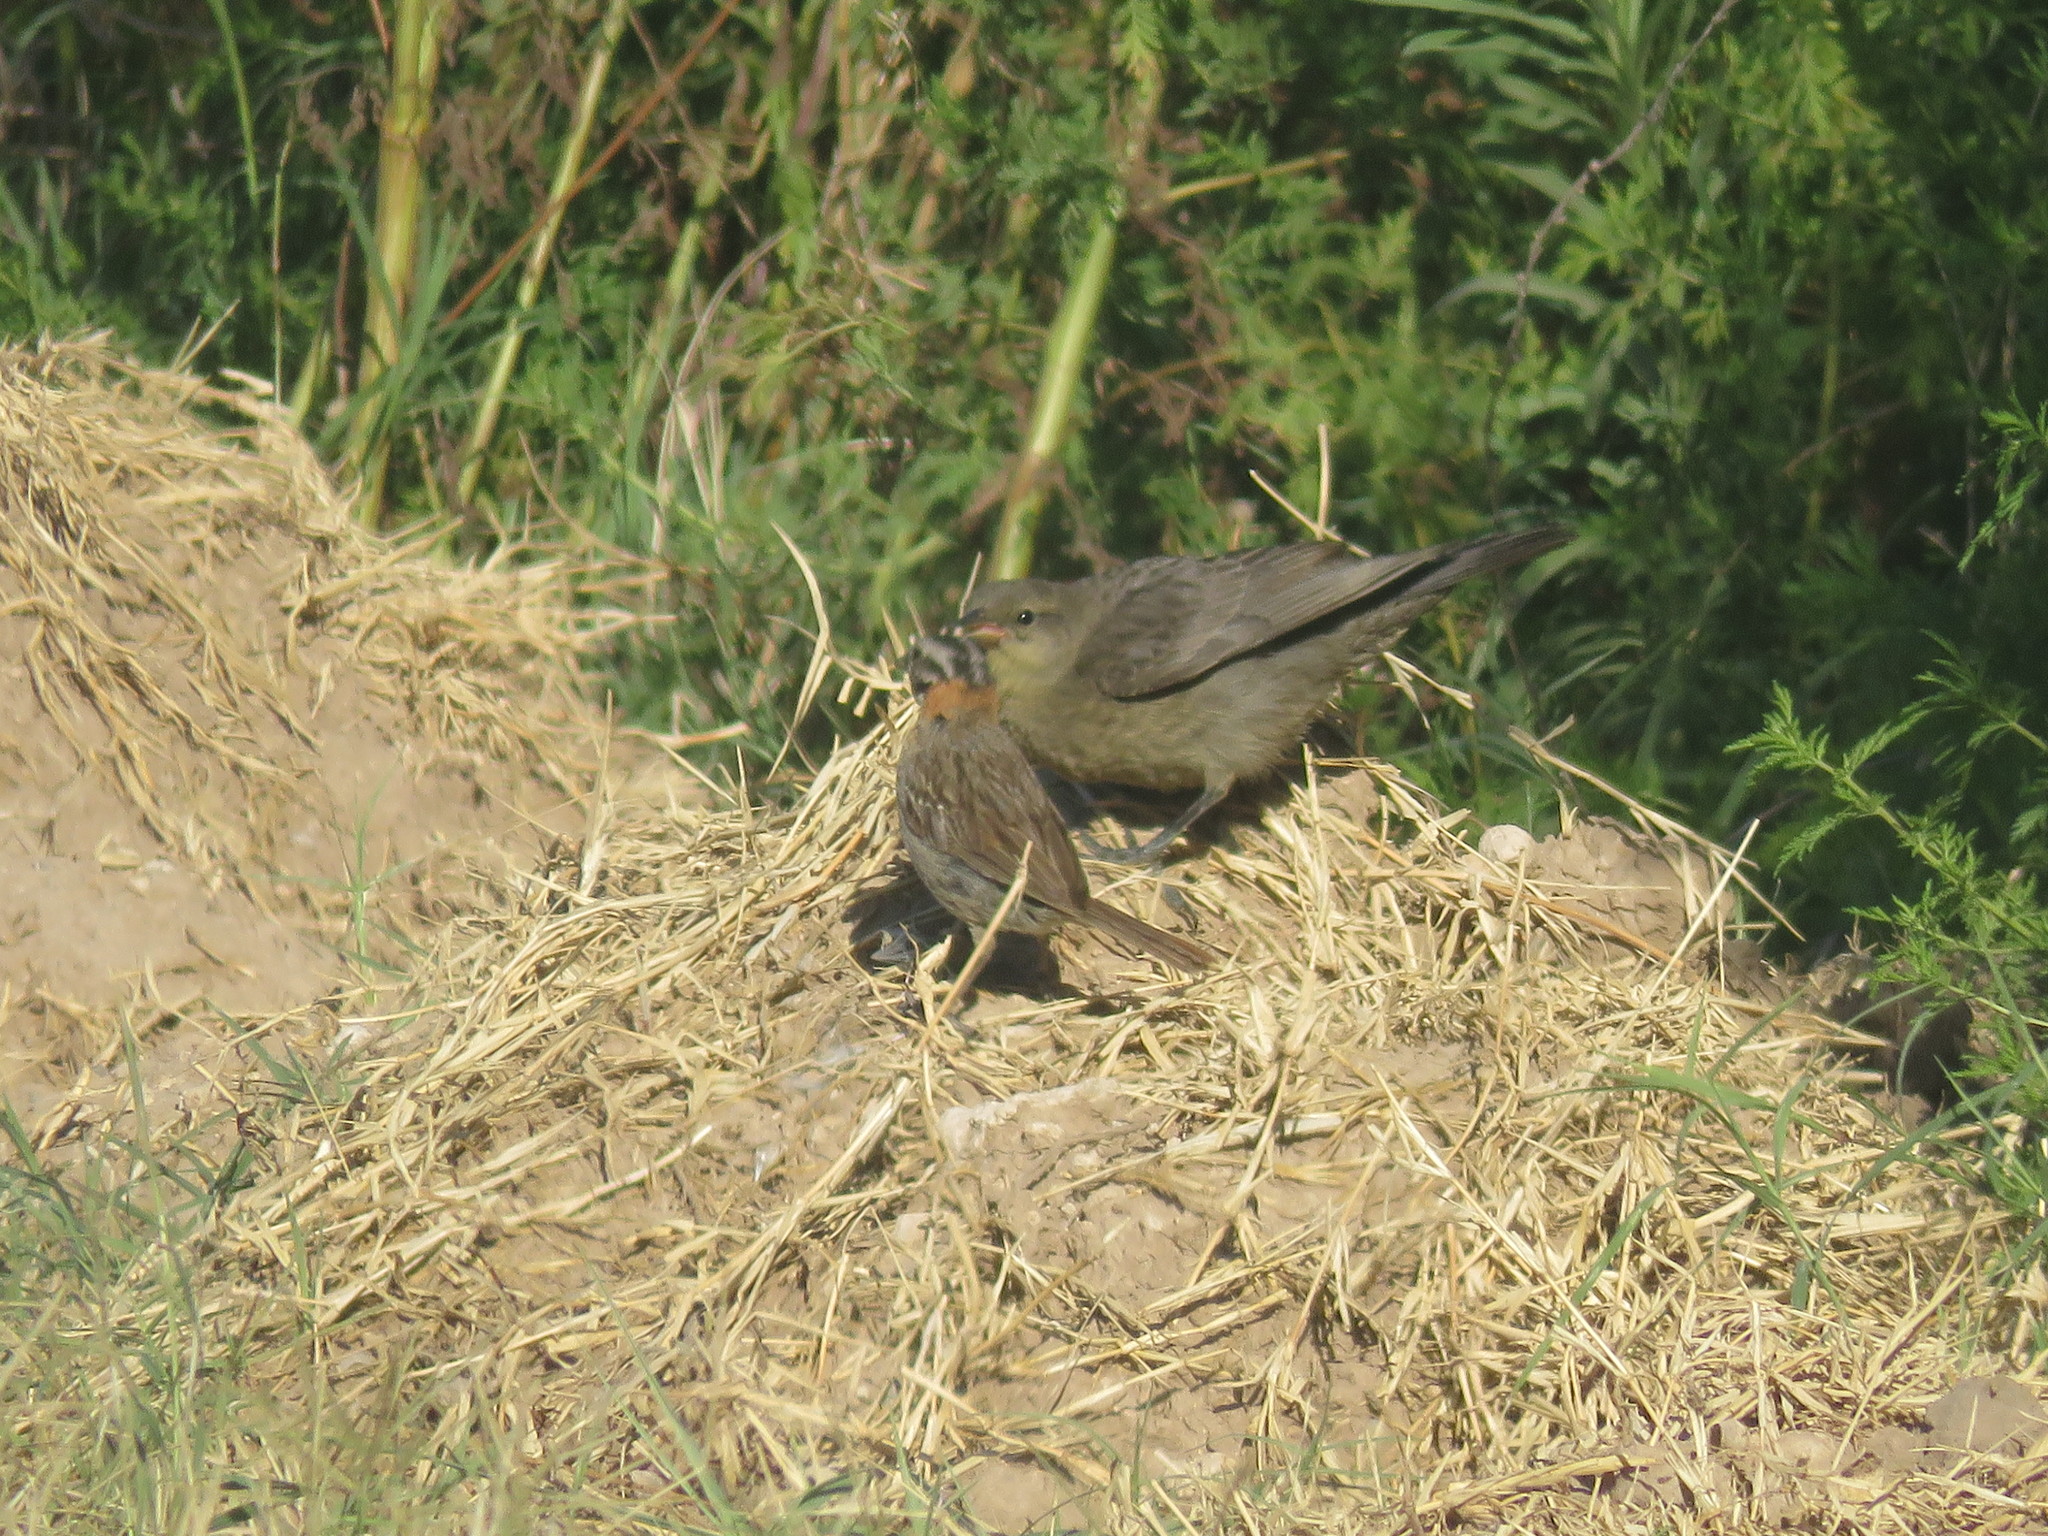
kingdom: Animalia
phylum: Chordata
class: Aves
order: Passeriformes
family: Passerellidae
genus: Zonotrichia
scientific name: Zonotrichia capensis
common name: Rufous-collared sparrow
